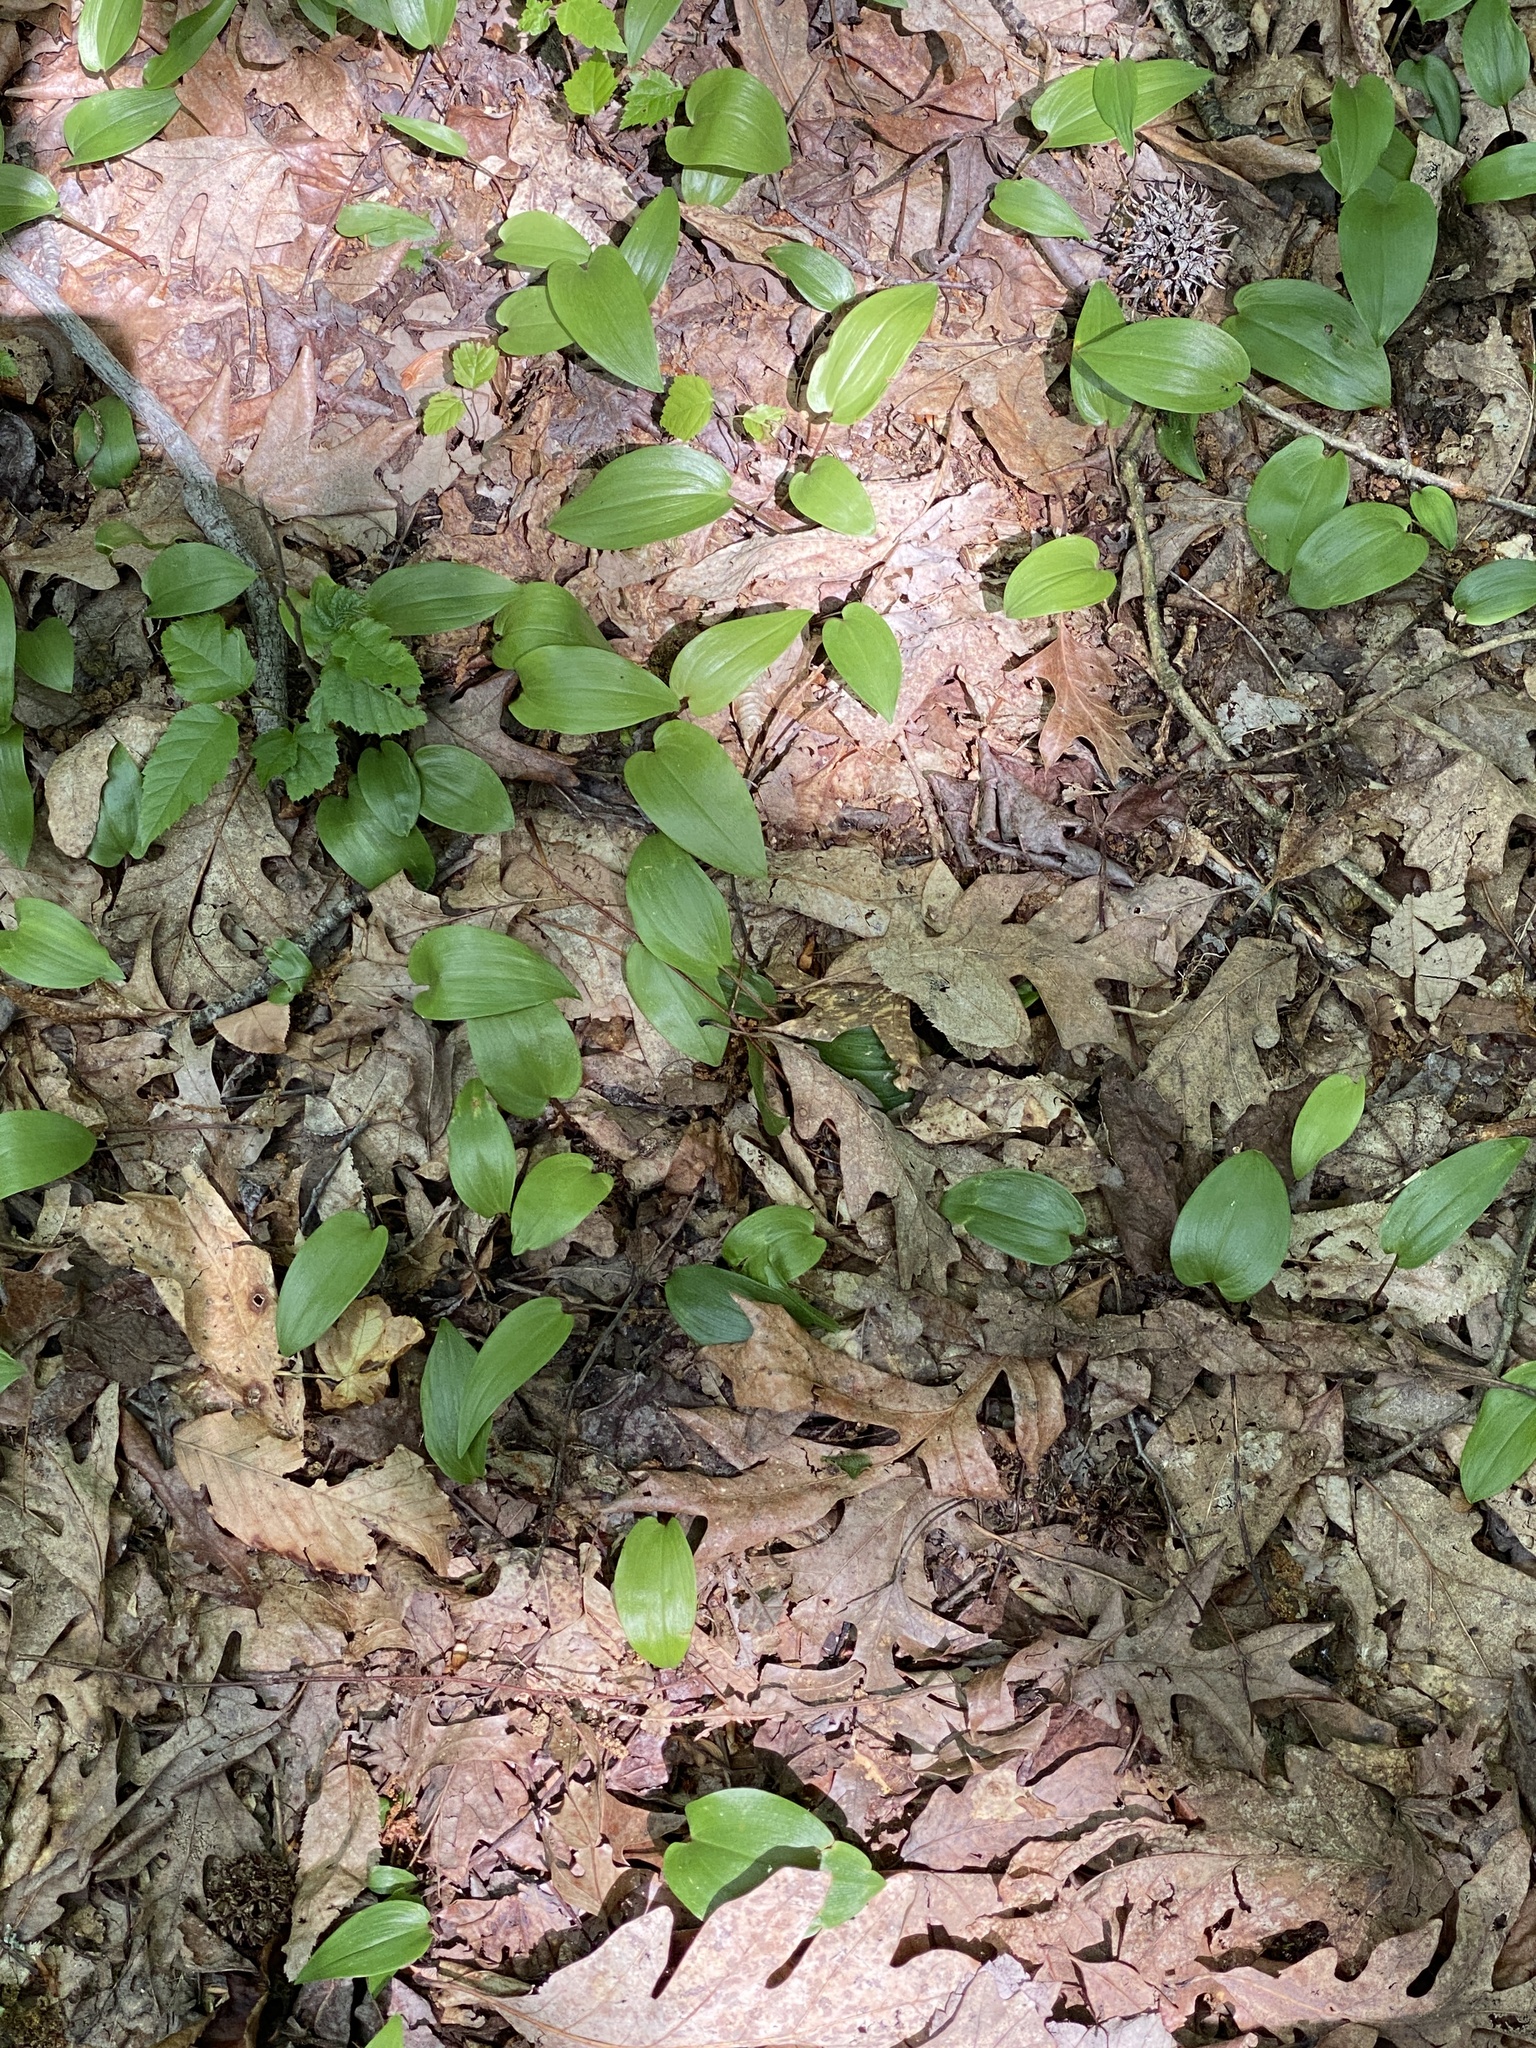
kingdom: Plantae
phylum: Tracheophyta
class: Liliopsida
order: Asparagales
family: Asparagaceae
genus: Maianthemum
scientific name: Maianthemum canadense
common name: False lily-of-the-valley
